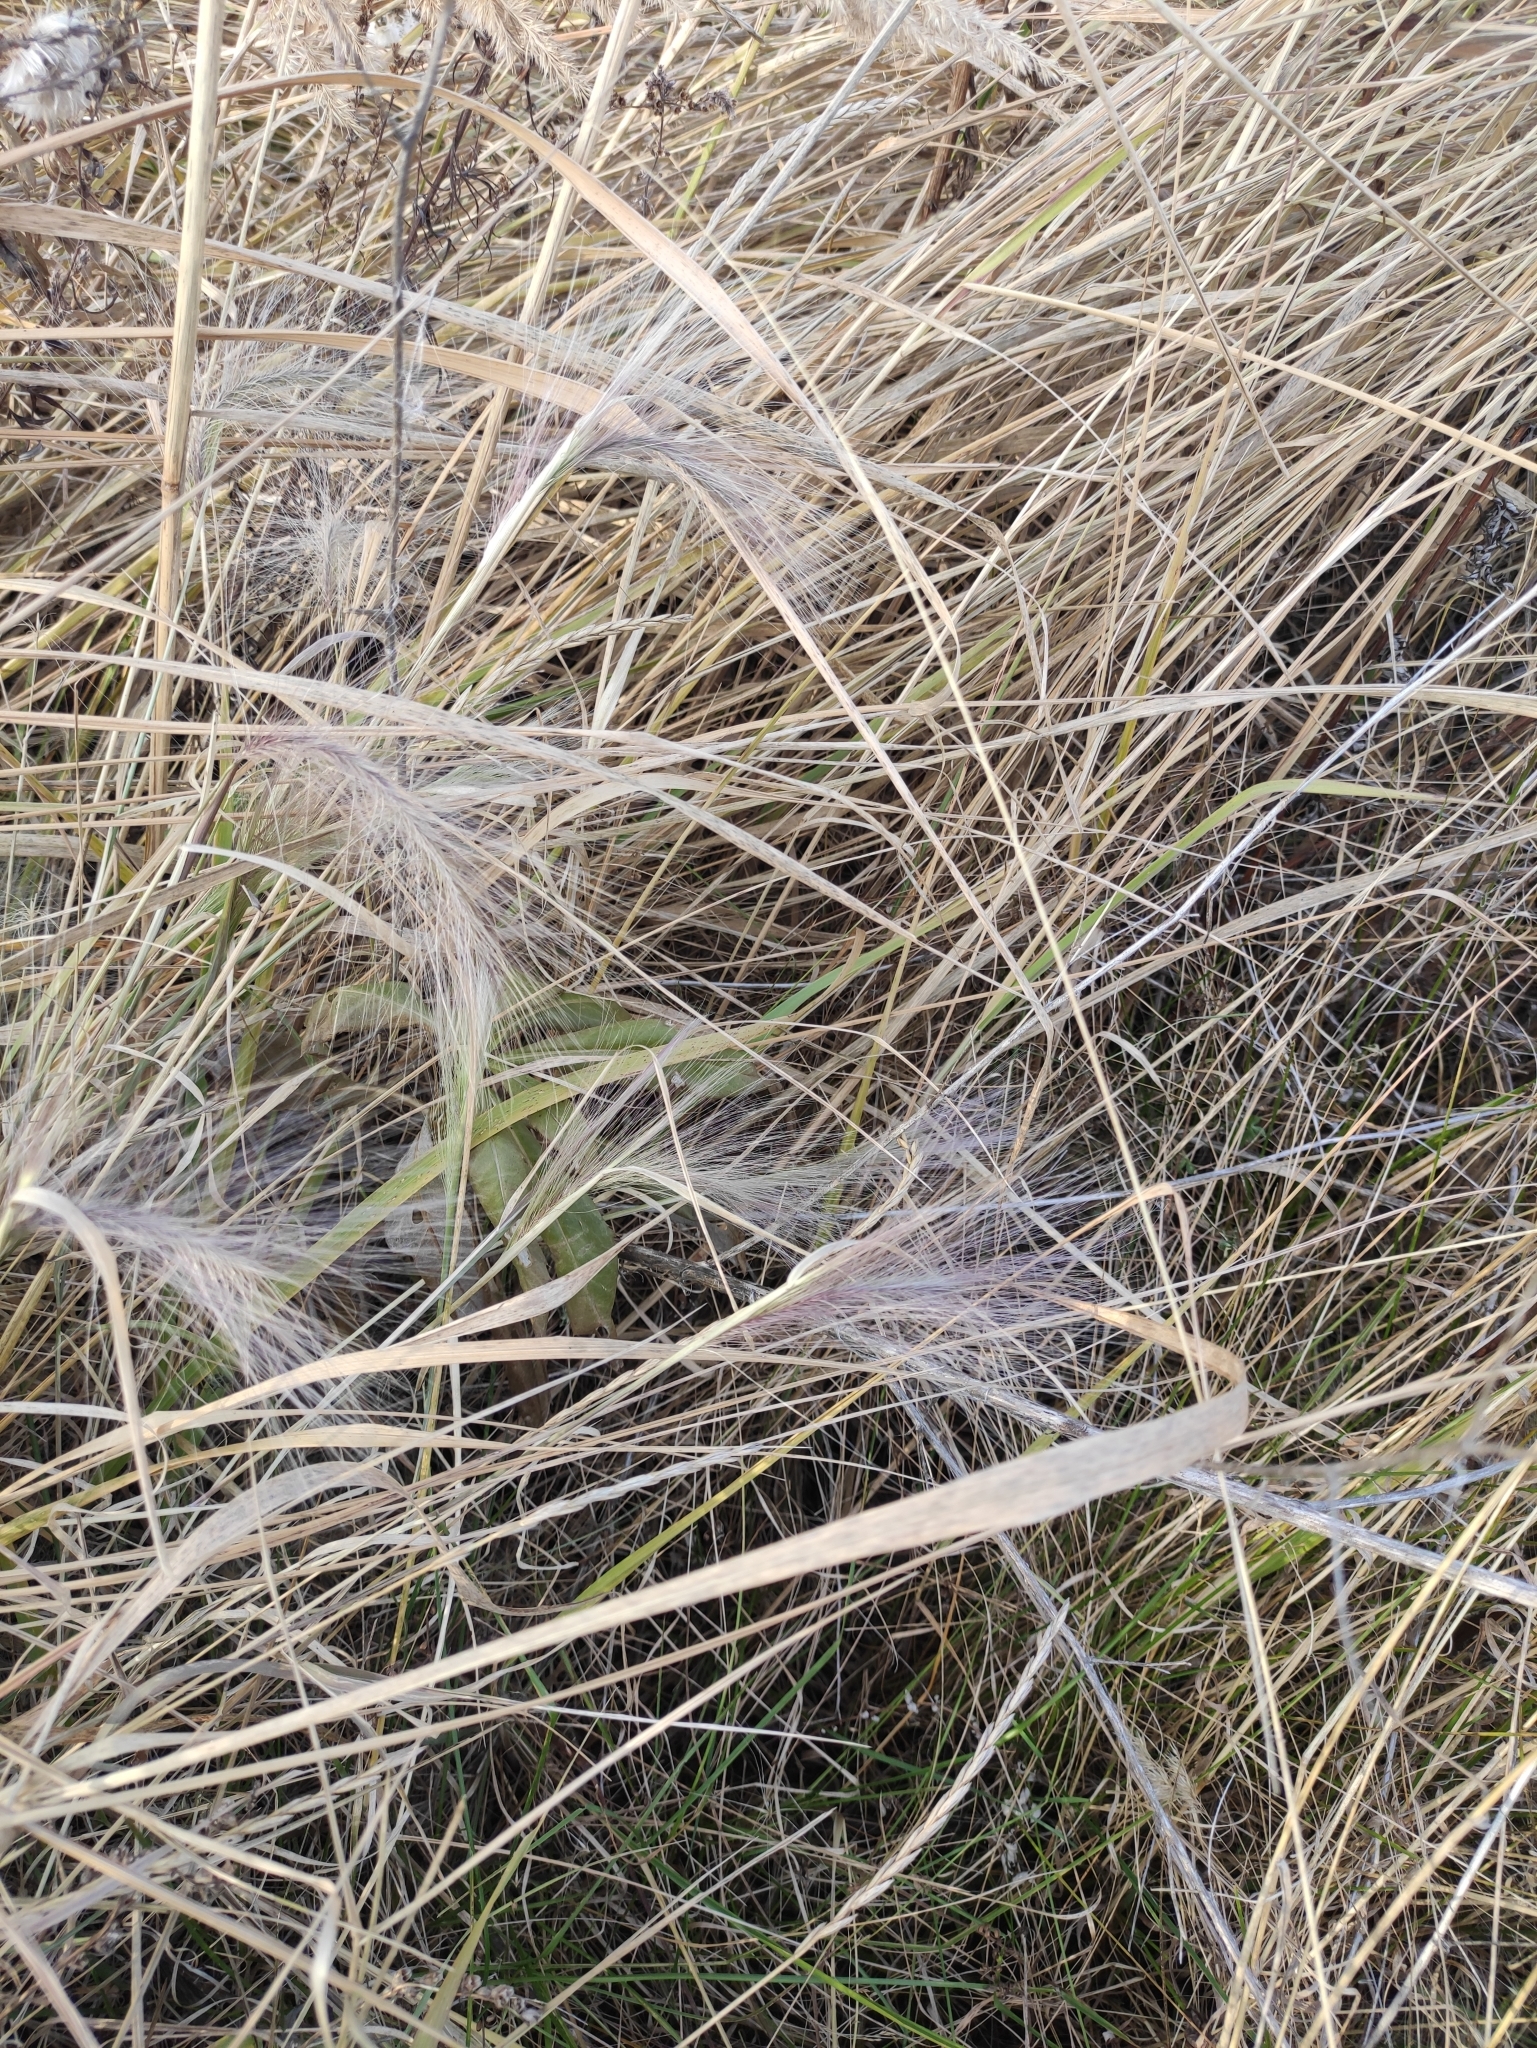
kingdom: Plantae
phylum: Tracheophyta
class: Liliopsida
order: Poales
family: Poaceae
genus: Hordeum
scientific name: Hordeum jubatum
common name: Foxtail barley
